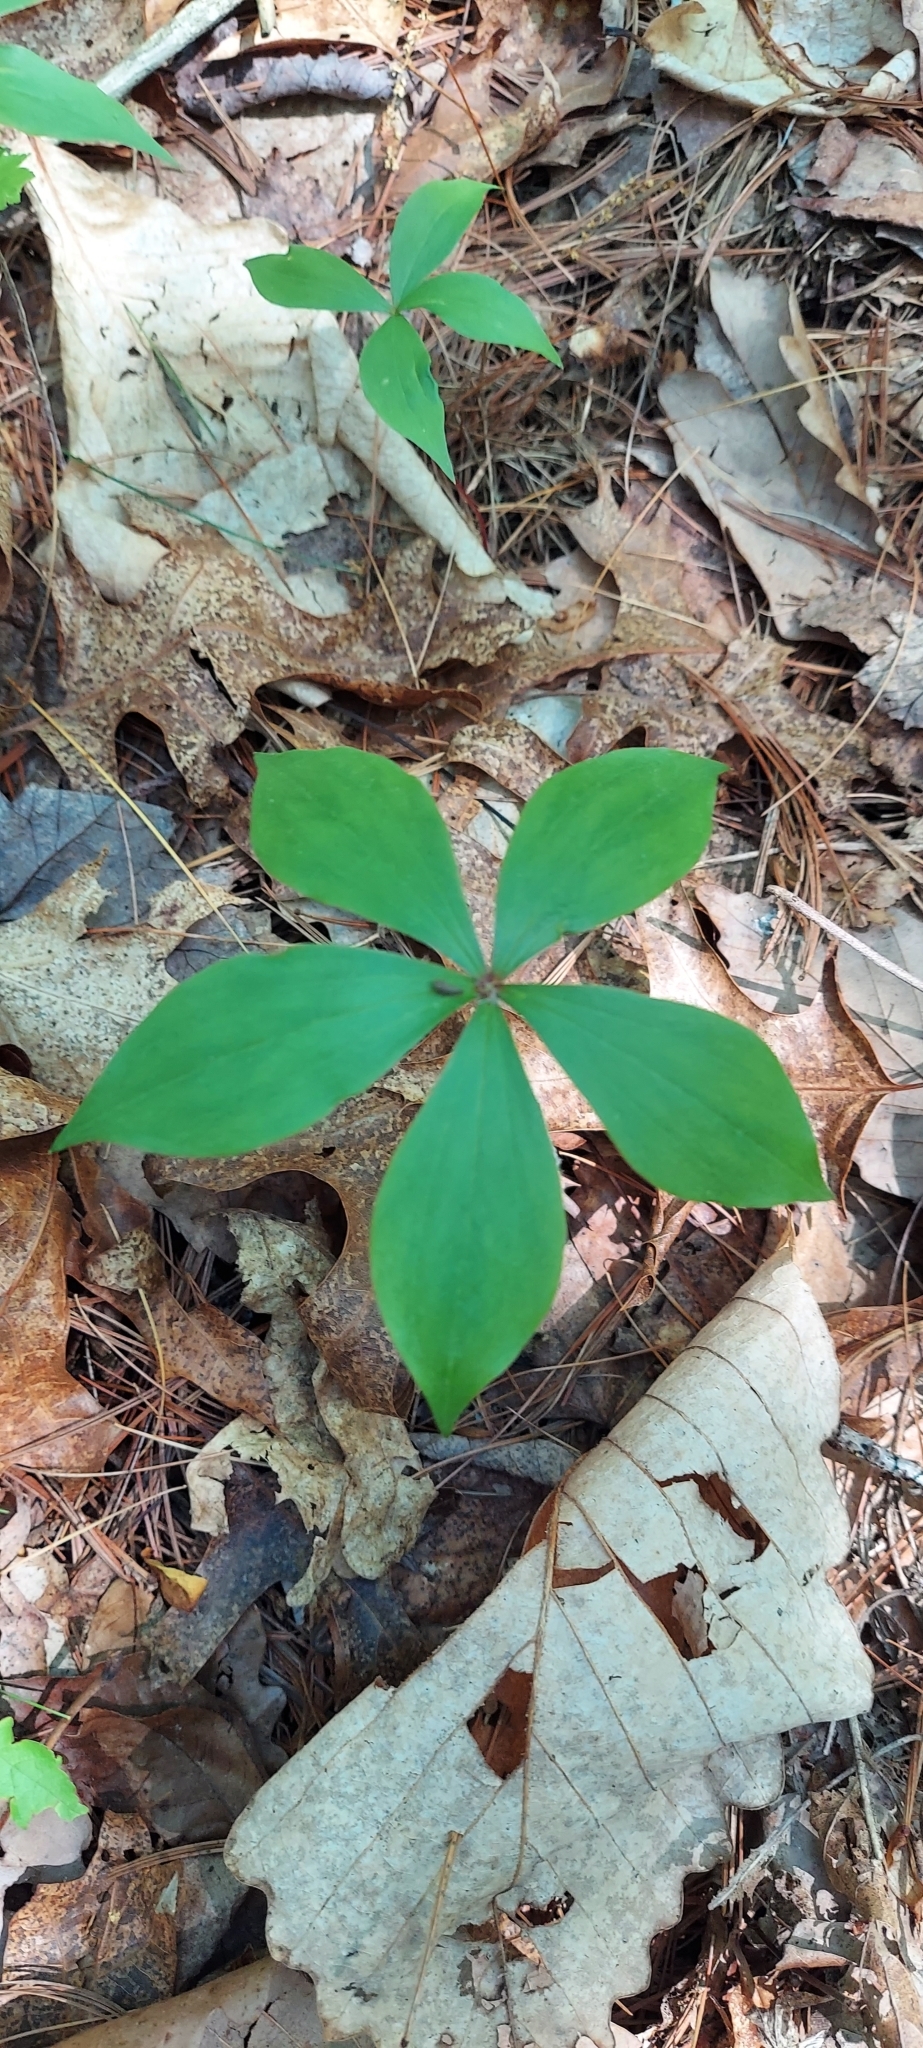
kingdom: Plantae
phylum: Tracheophyta
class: Liliopsida
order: Asparagales
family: Orchidaceae
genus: Isotria
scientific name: Isotria verticillata
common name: Large whorled pogonia
